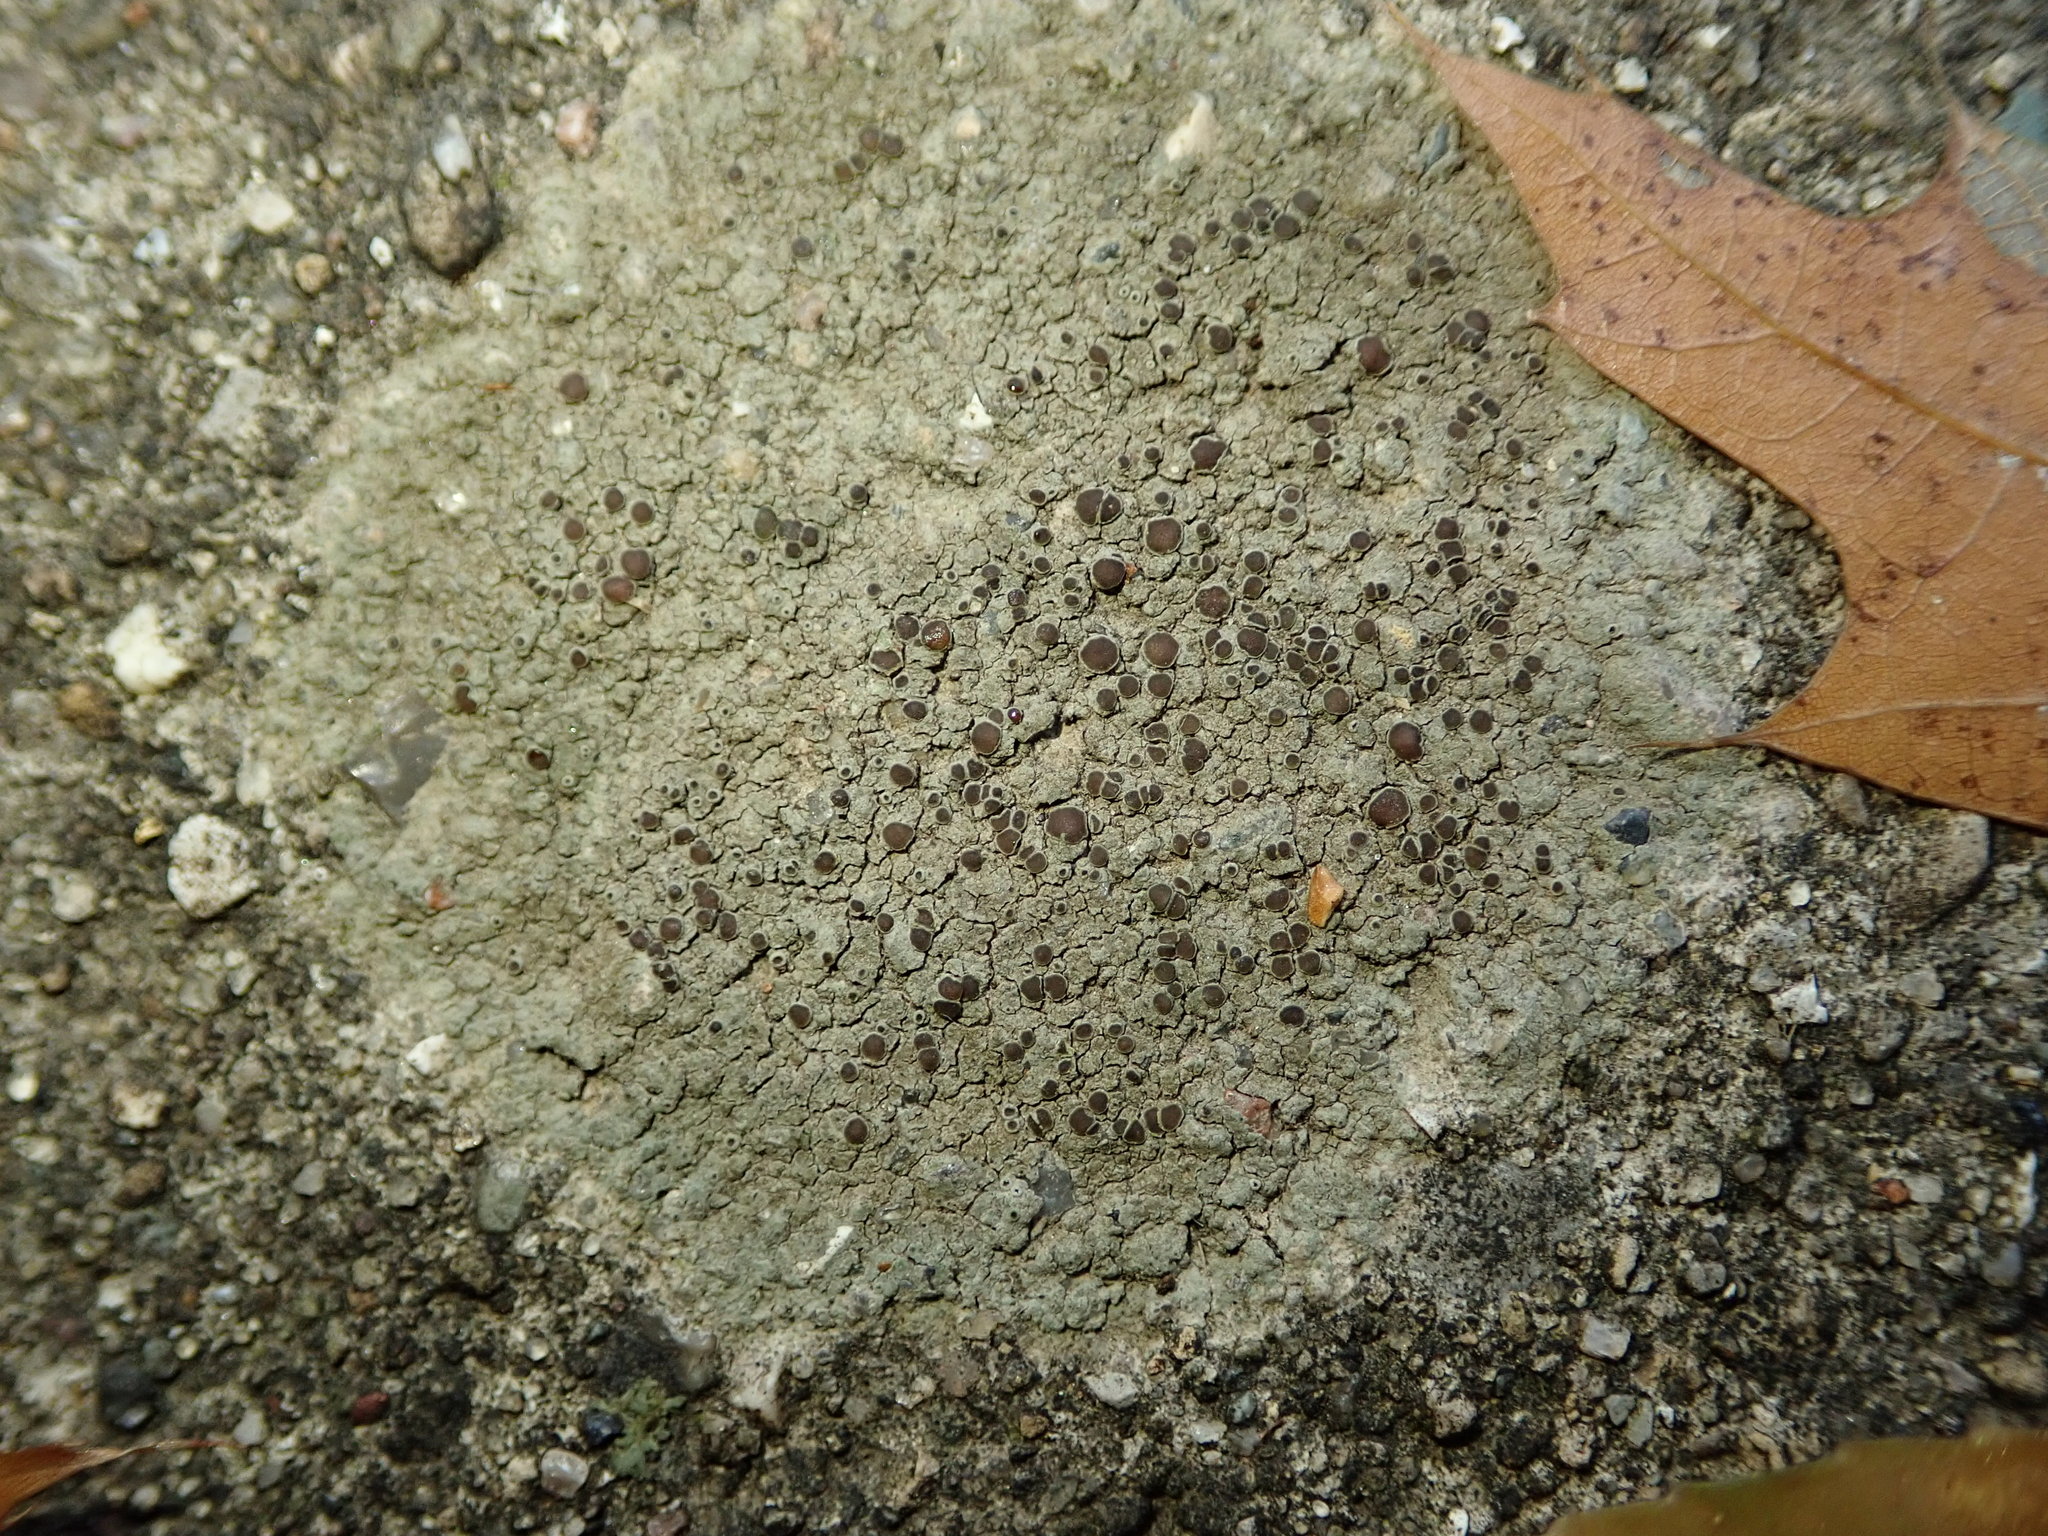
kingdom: Fungi
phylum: Ascomycota
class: Lecanoromycetes
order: Teloschistales
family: Teloschistaceae
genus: Pyrenodesmia
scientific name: Pyrenodesmia atroalba
